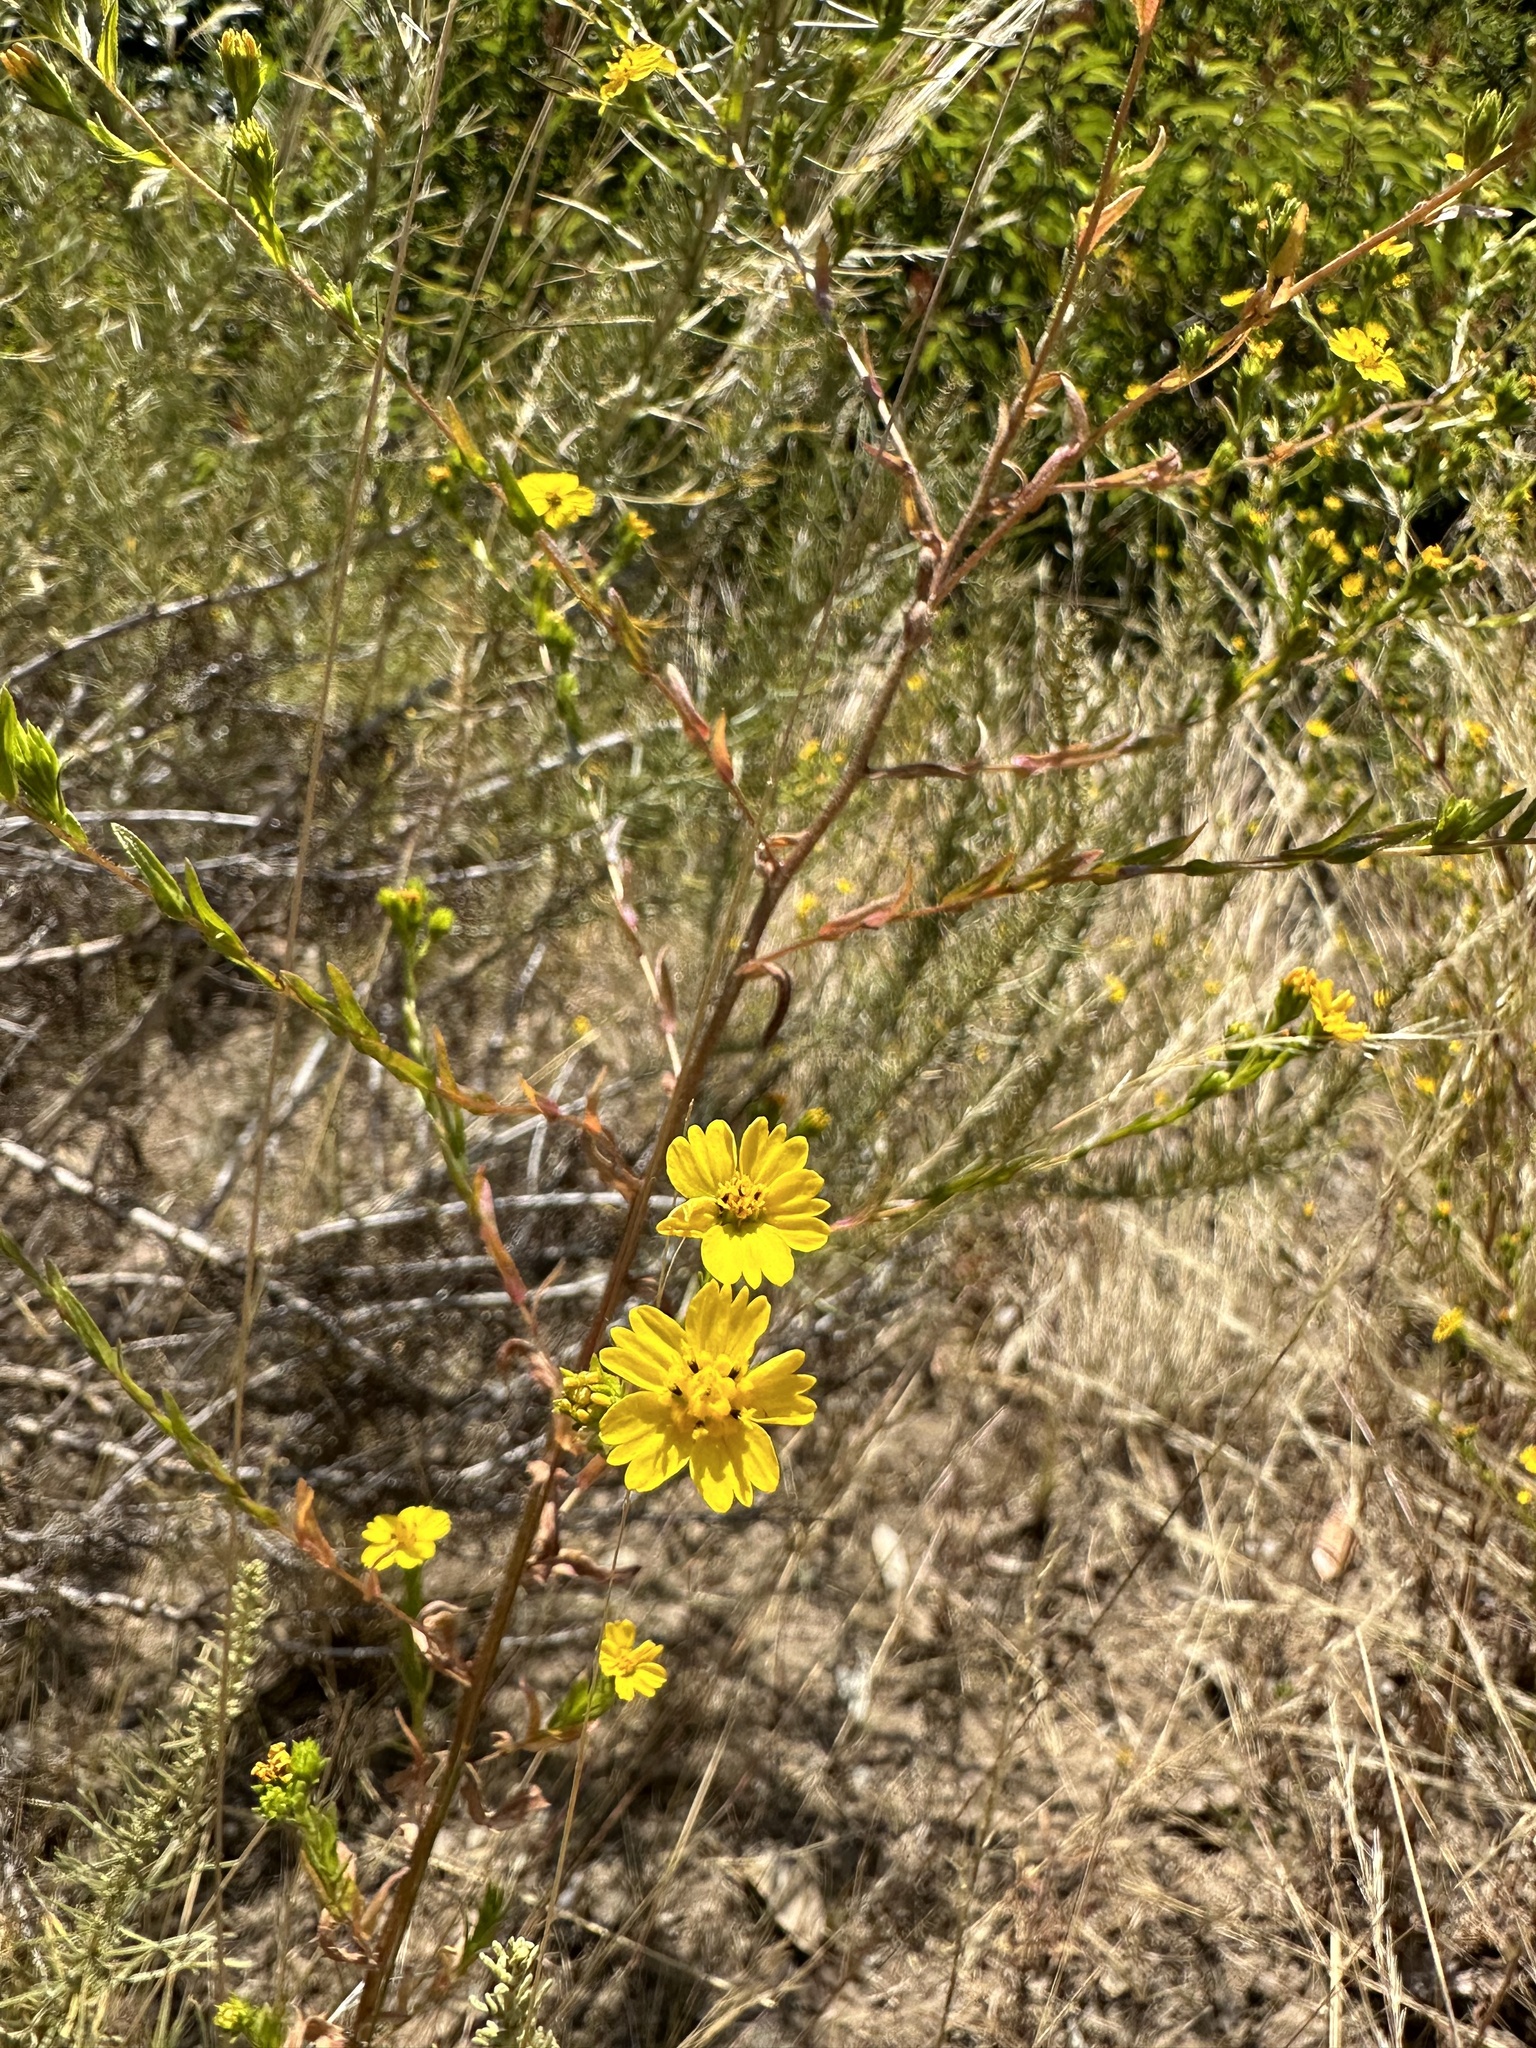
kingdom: Plantae
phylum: Tracheophyta
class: Magnoliopsida
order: Asterales
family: Asteraceae
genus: Deinandra
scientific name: Deinandra fasciculata
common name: Clustered tarweed
